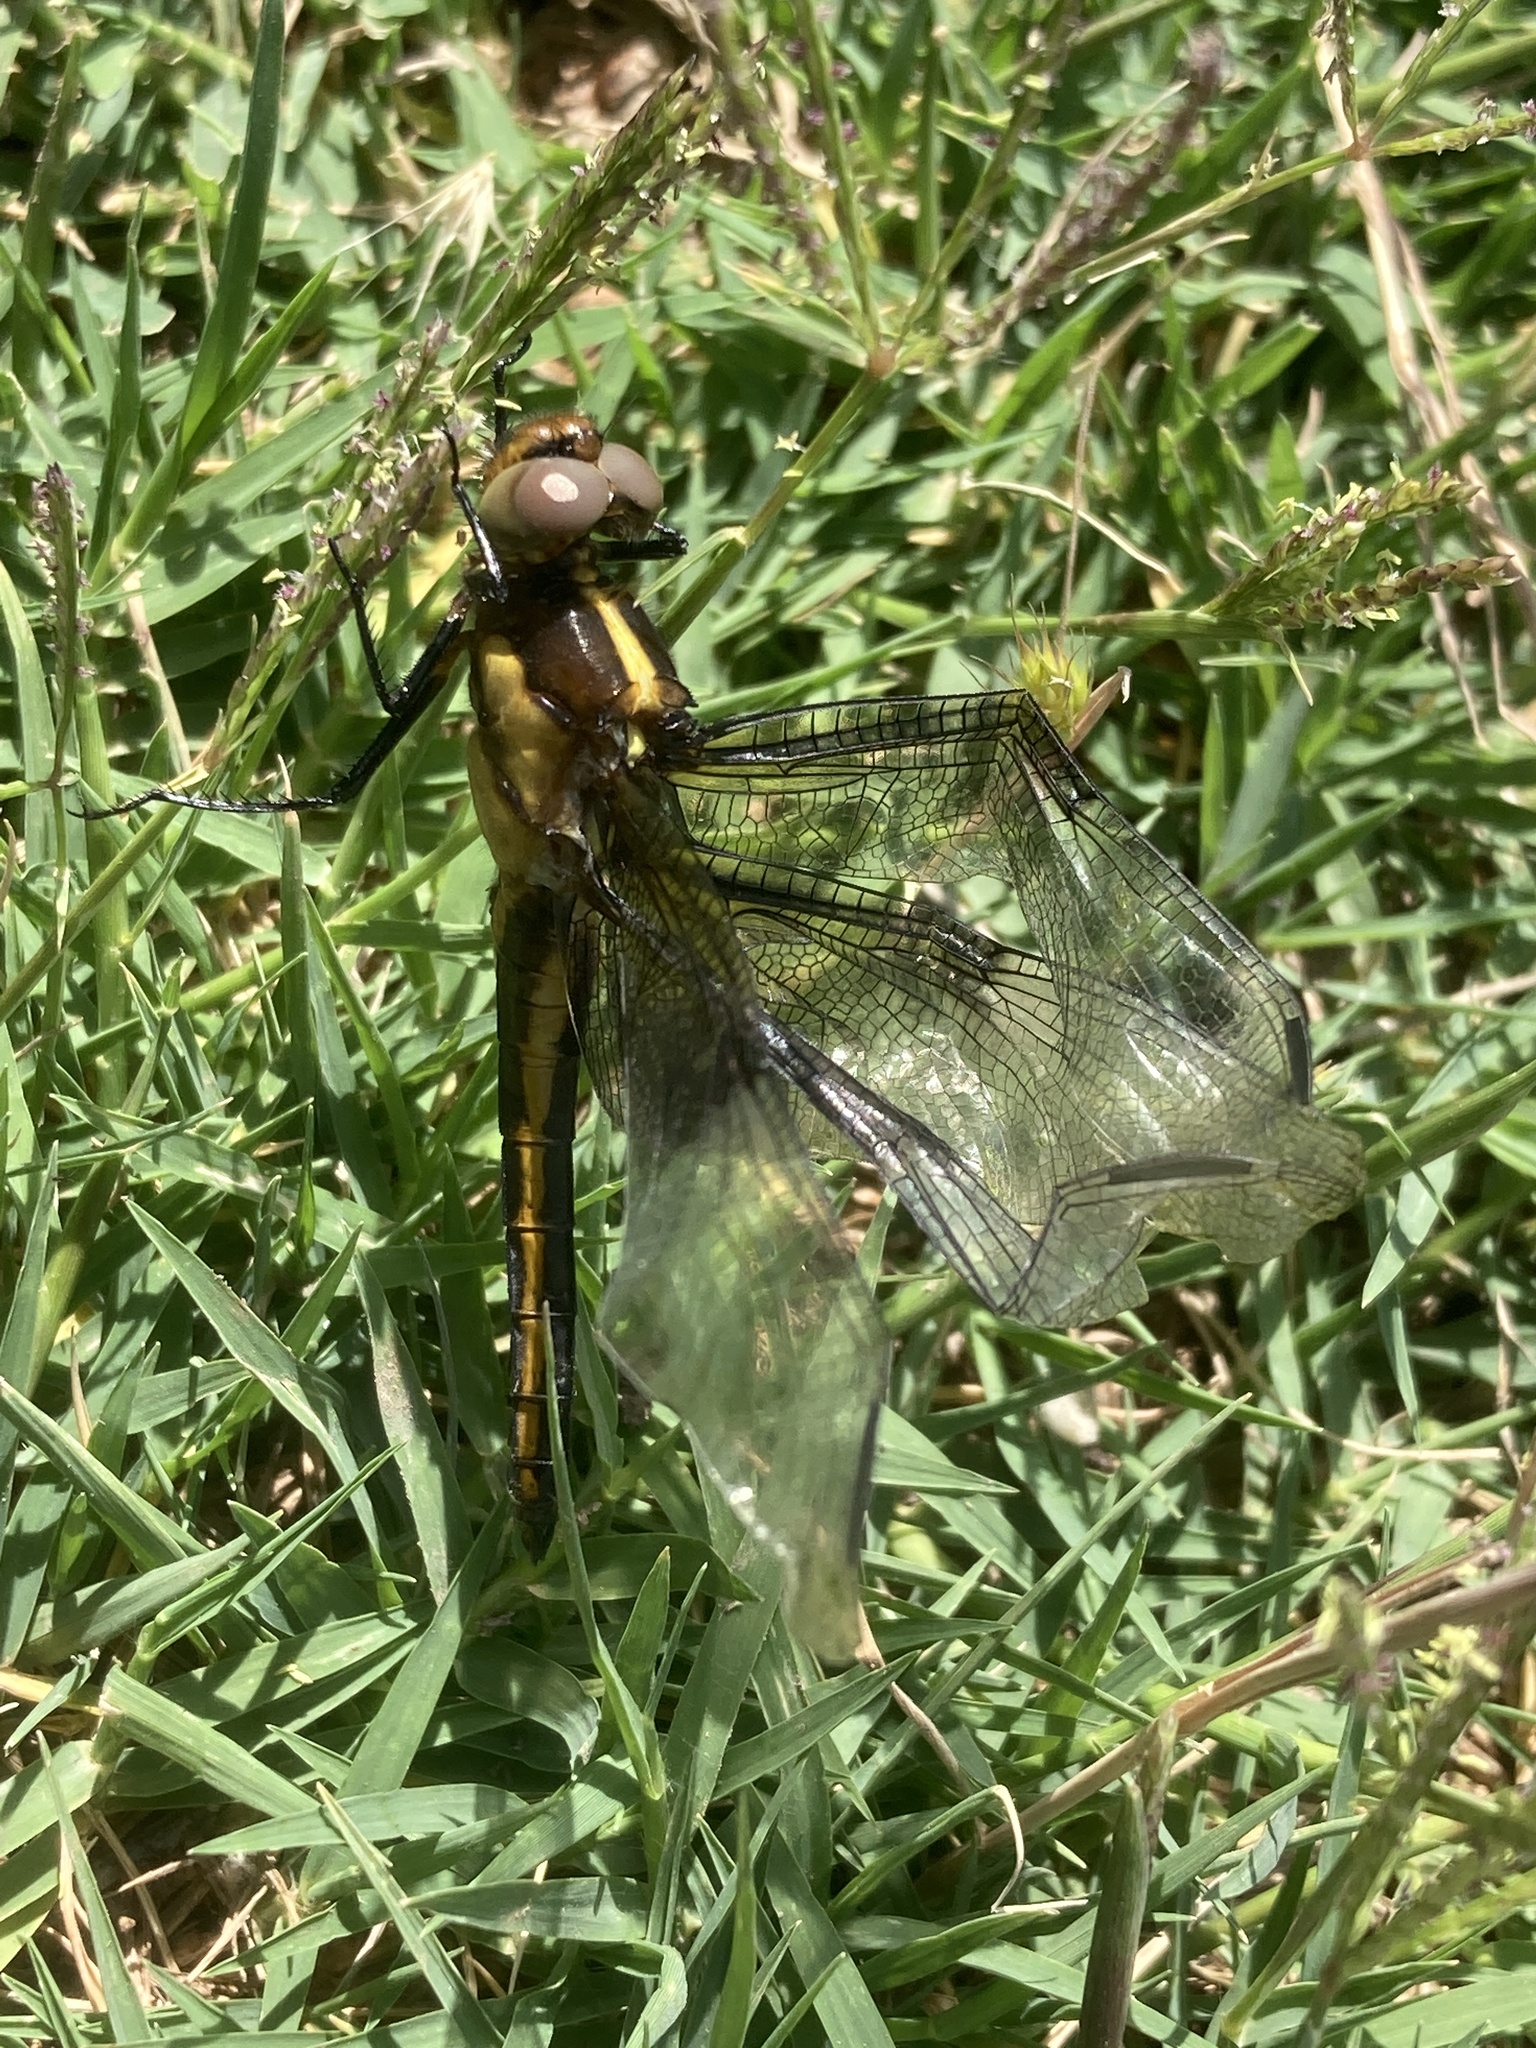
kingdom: Animalia
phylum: Arthropoda
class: Insecta
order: Odonata
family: Libellulidae
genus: Libellula
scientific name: Libellula luctuosa
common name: Widow skimmer
